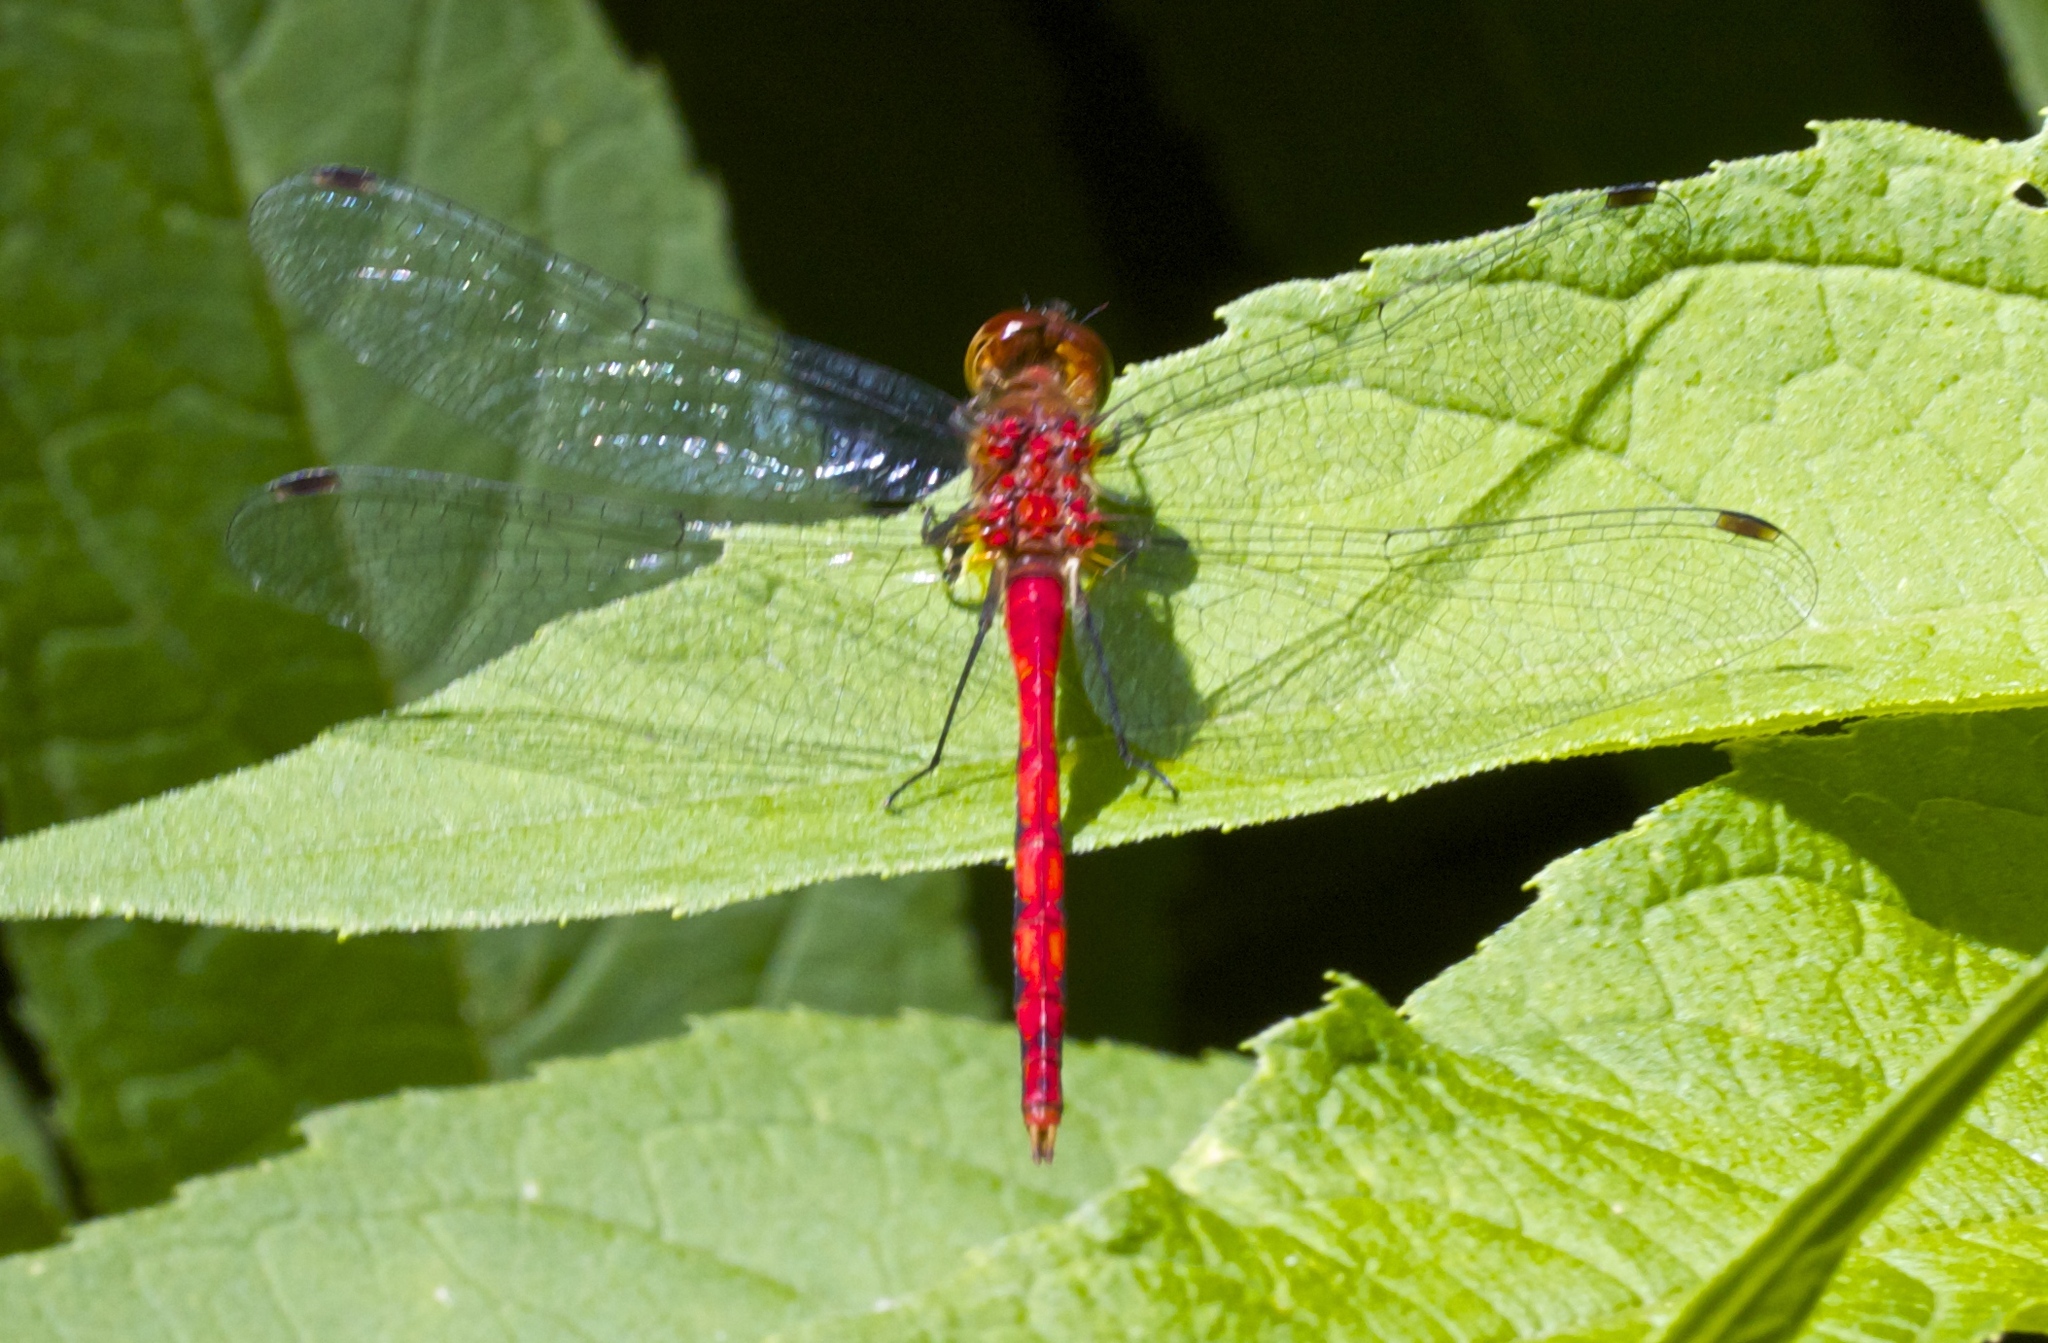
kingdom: Animalia
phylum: Arthropoda
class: Insecta
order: Odonata
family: Libellulidae
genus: Sympetrum
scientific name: Sympetrum
